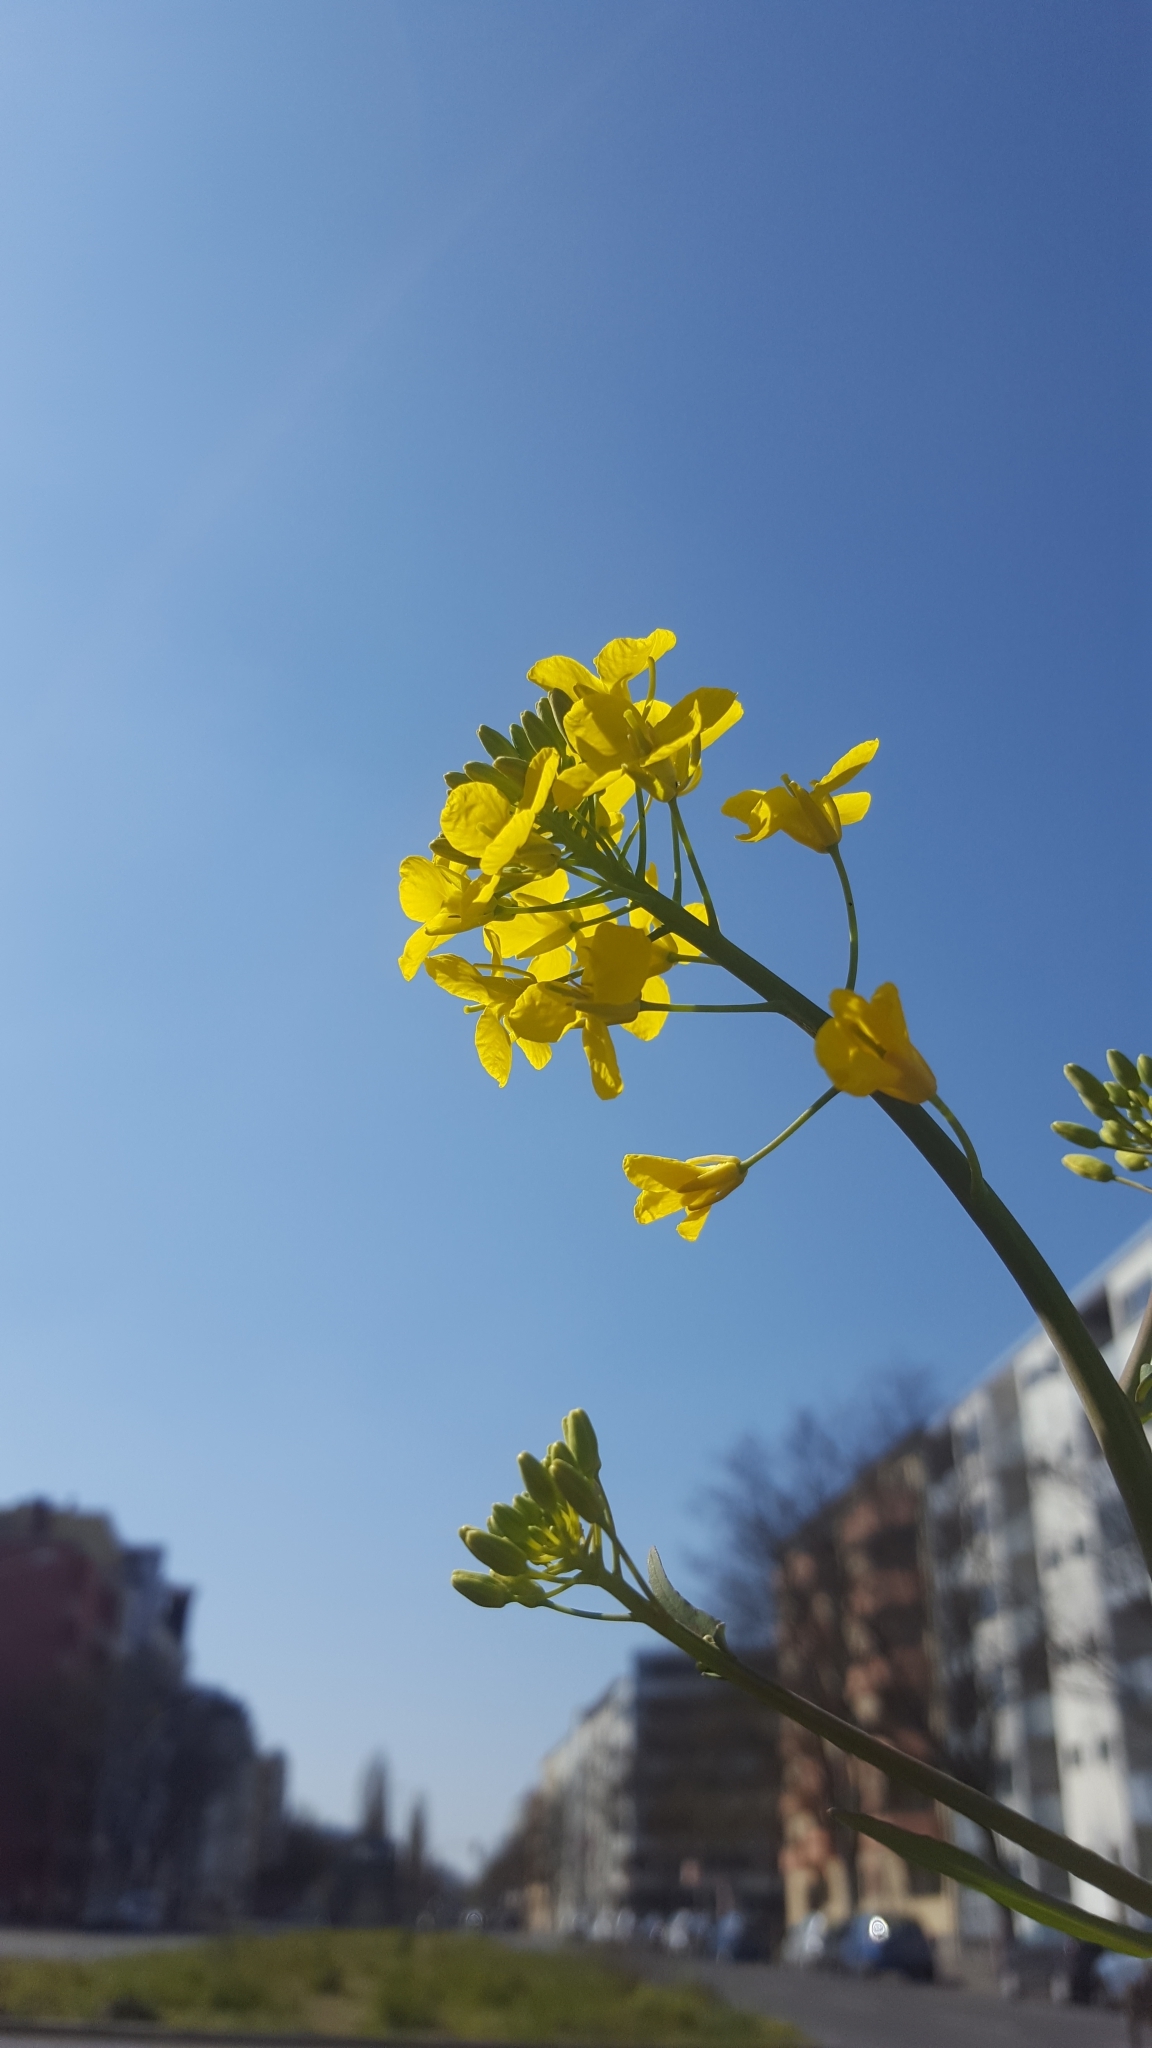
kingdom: Plantae
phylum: Tracheophyta
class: Magnoliopsida
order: Brassicales
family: Brassicaceae
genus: Brassica
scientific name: Brassica rapa
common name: Field mustard
